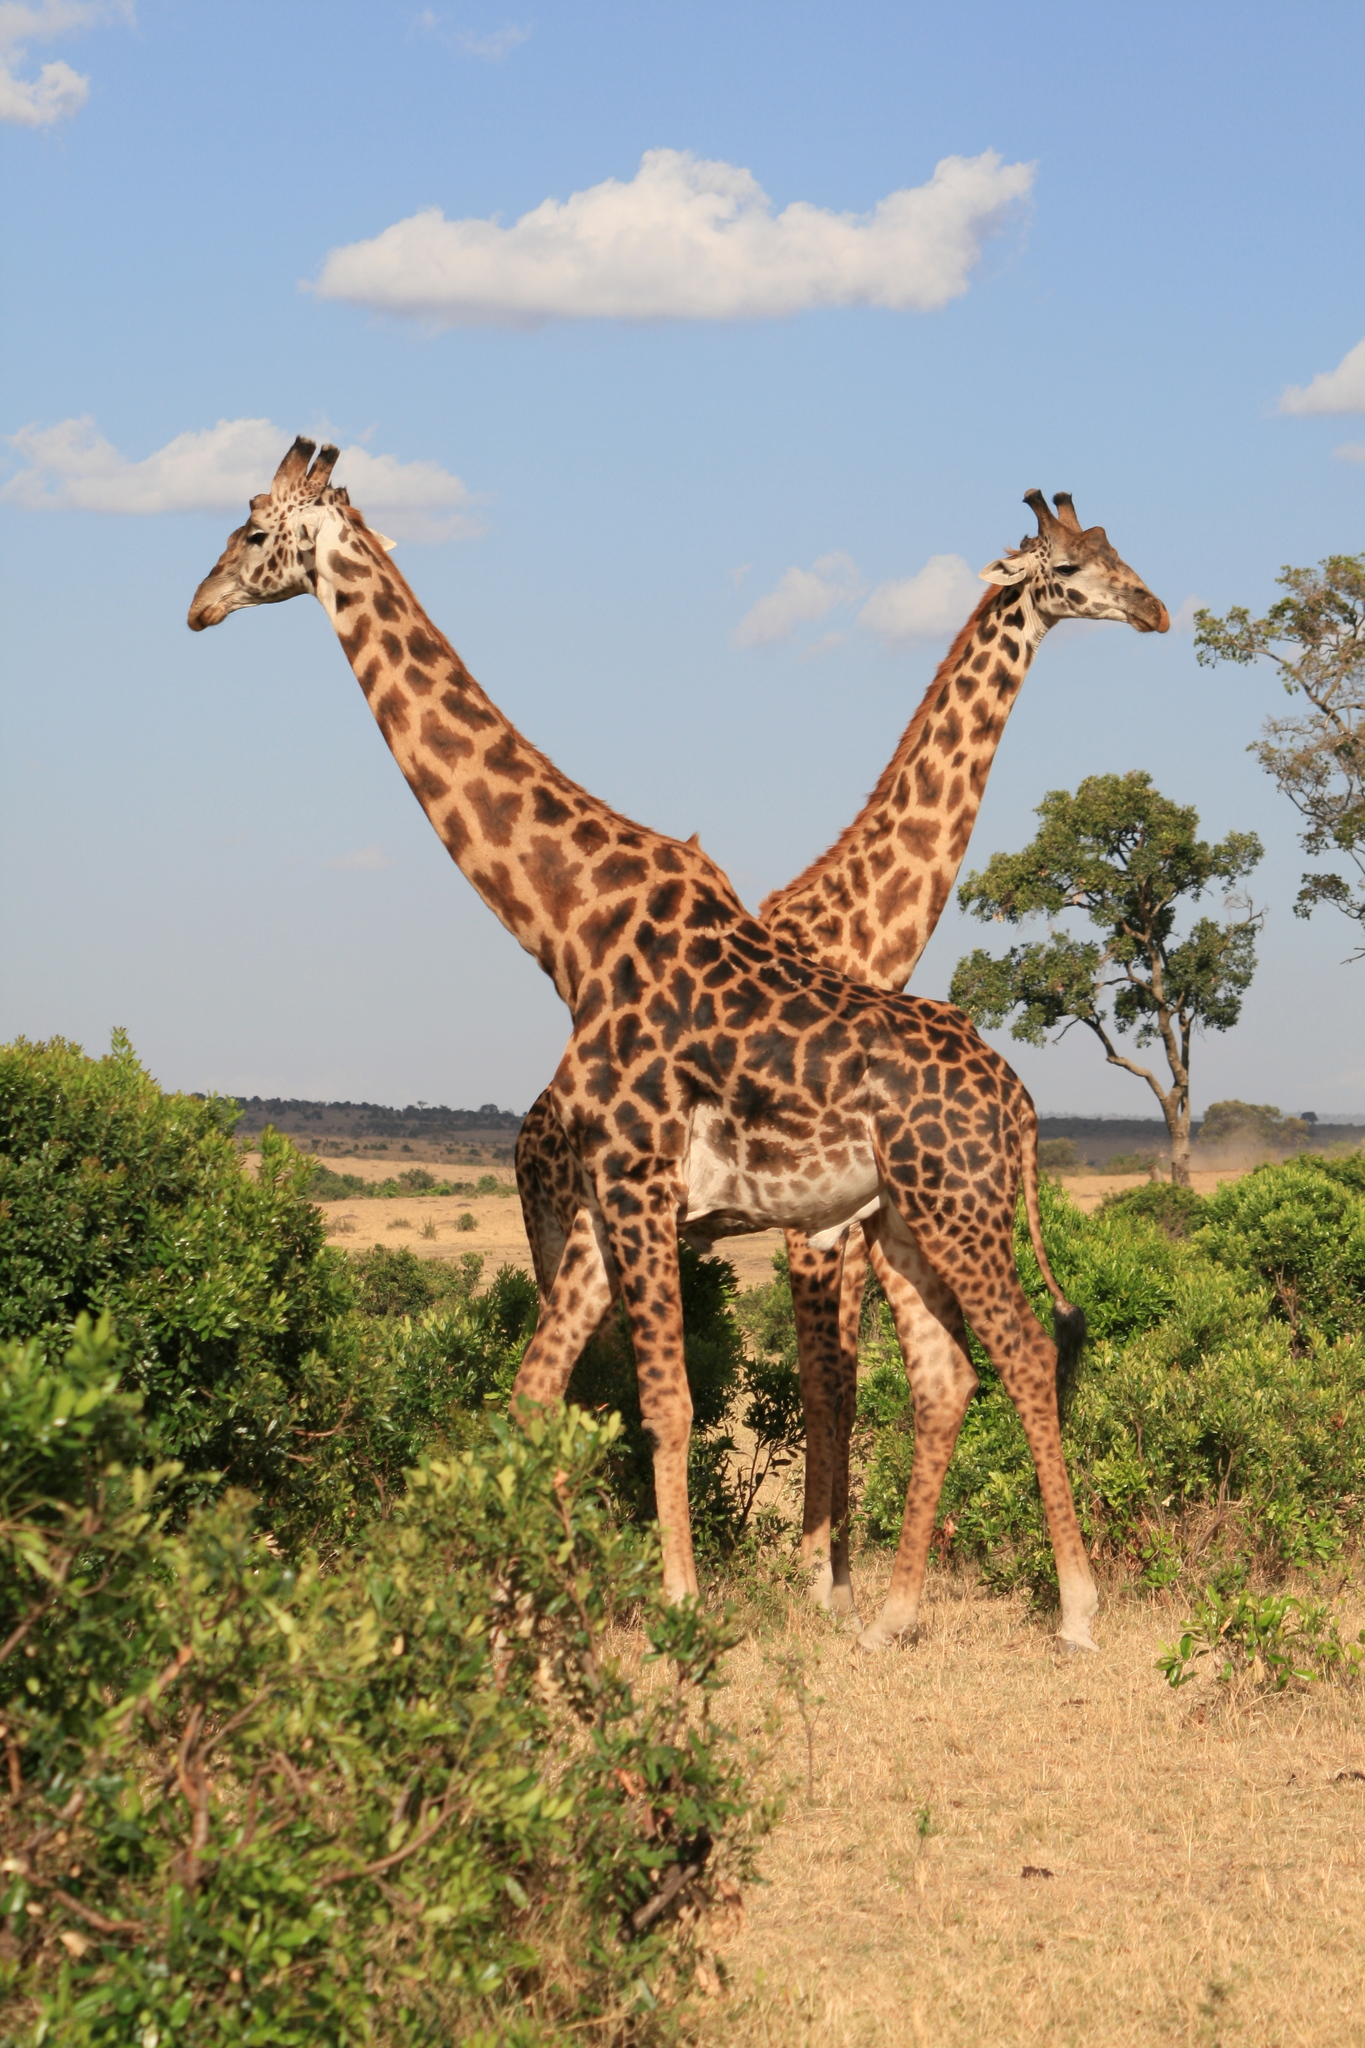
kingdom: Animalia
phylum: Chordata
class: Mammalia
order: Artiodactyla
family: Giraffidae
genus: Giraffa
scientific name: Giraffa tippelskirchi
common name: Masai giraffe
